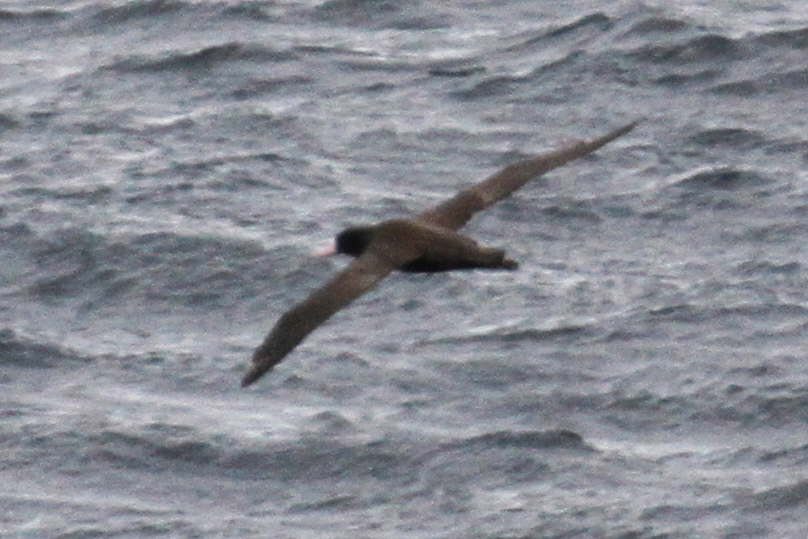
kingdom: Animalia
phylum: Chordata
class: Aves
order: Procellariiformes
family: Diomedeidae
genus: Phoebastria
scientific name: Phoebastria albatrus
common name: Short-tailed albatross
